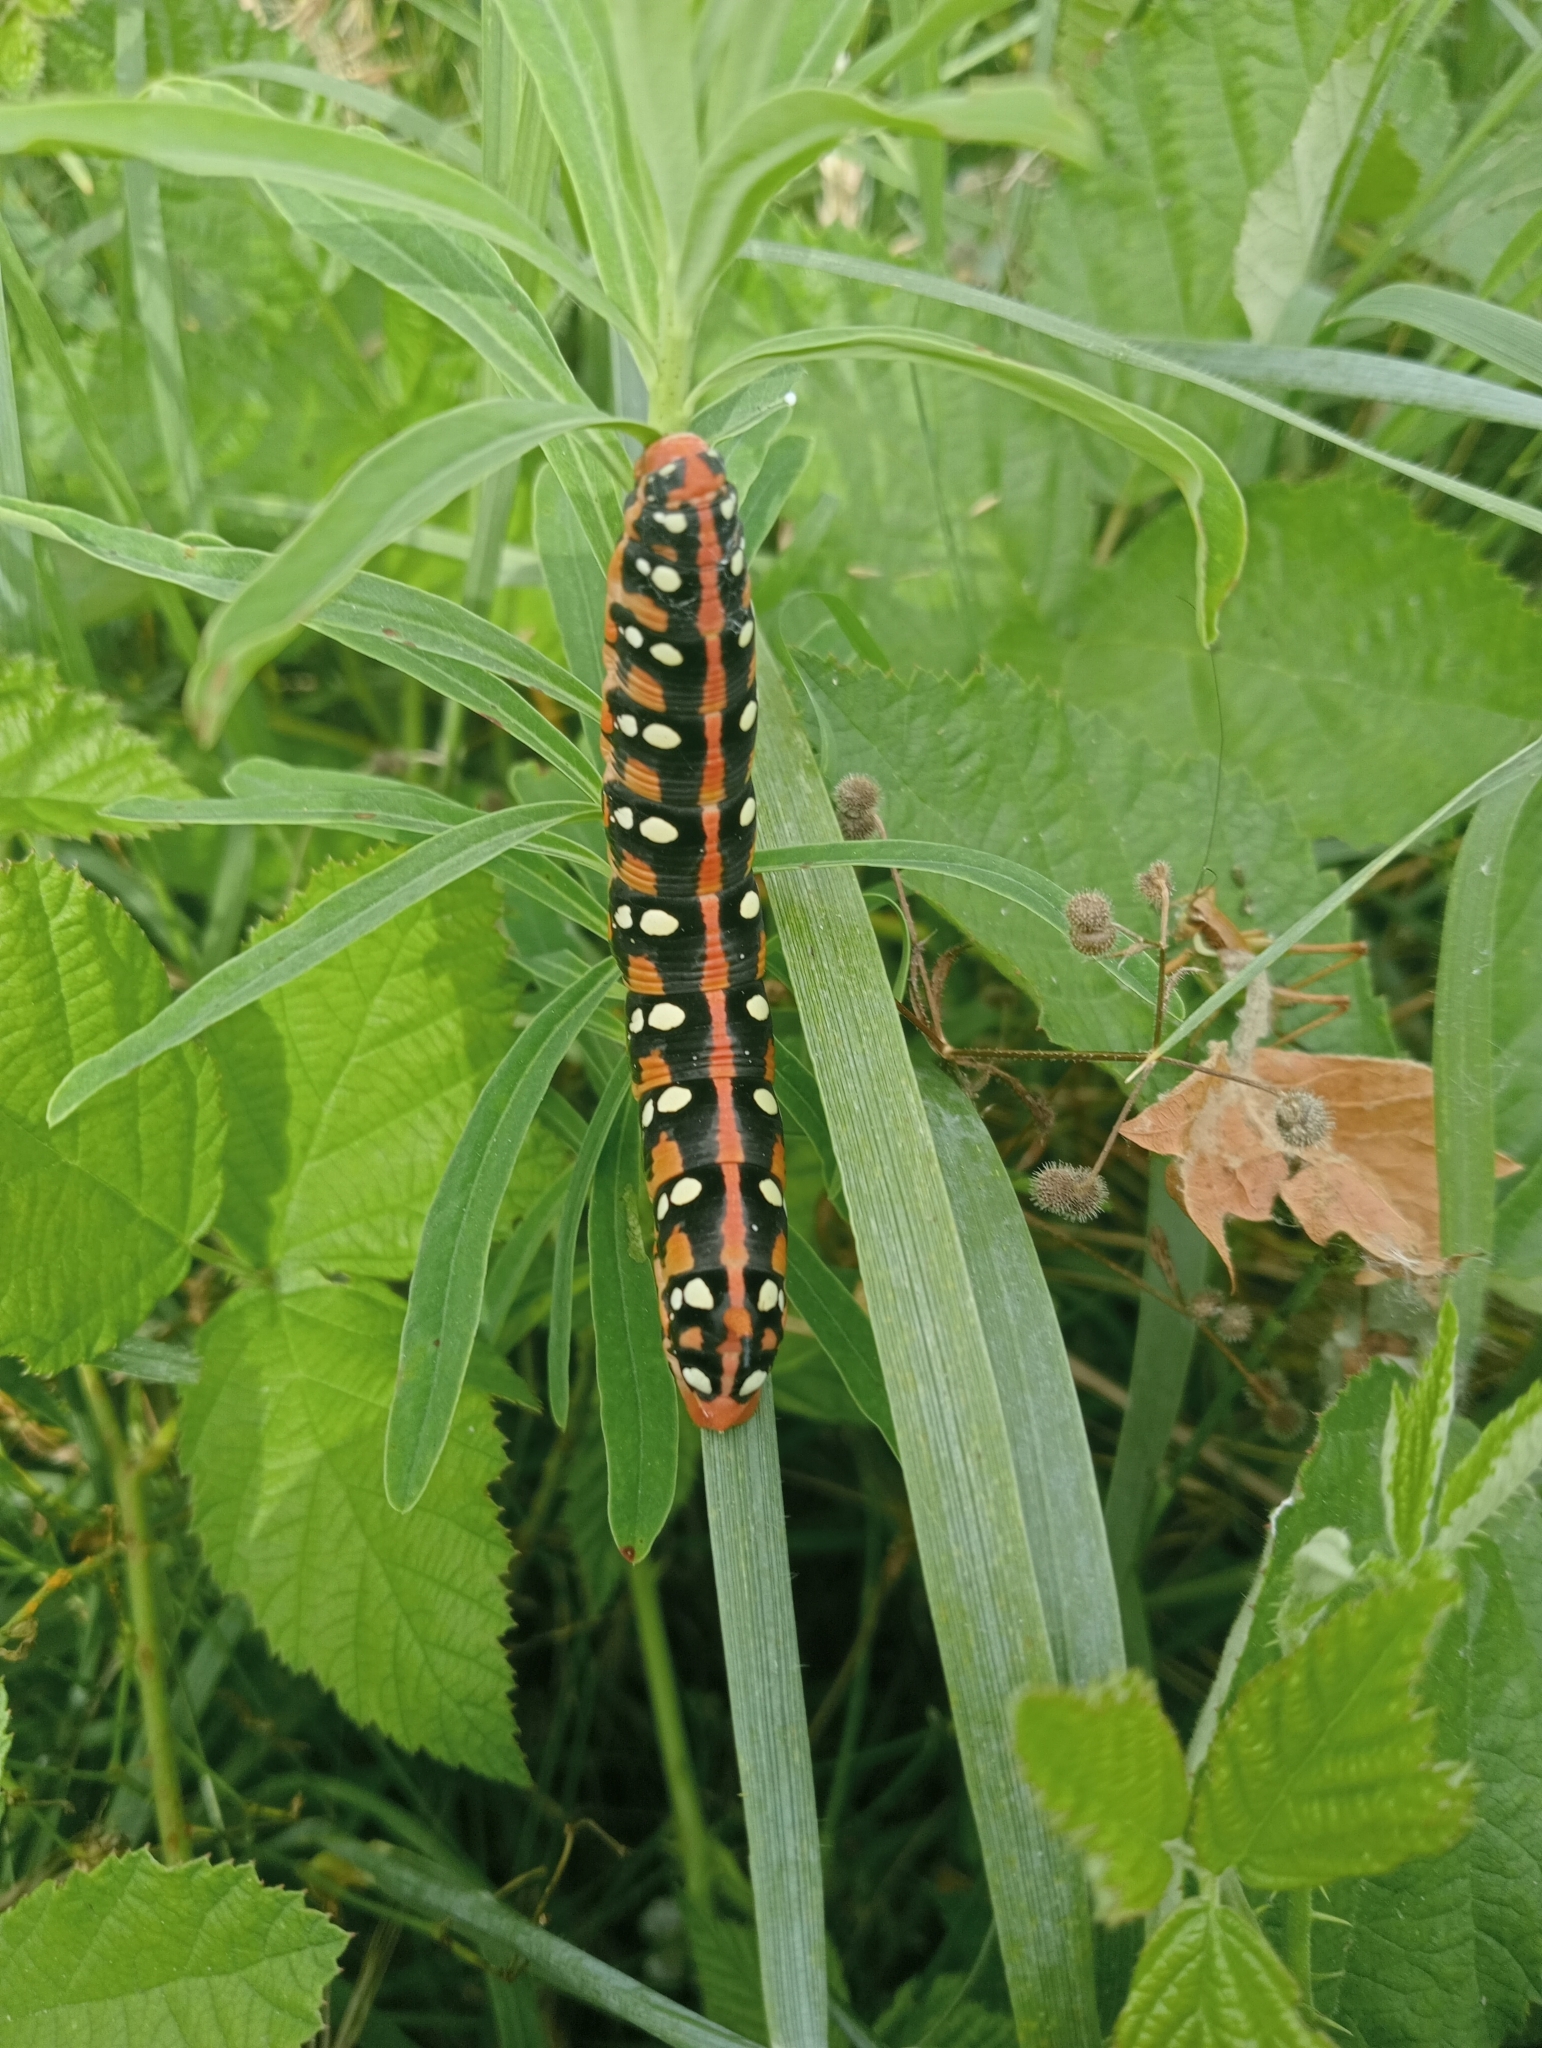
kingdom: Animalia
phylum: Arthropoda
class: Insecta
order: Lepidoptera
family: Sphingidae
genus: Hyles
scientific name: Hyles euphorbiae
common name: Spurge hawk-moth
